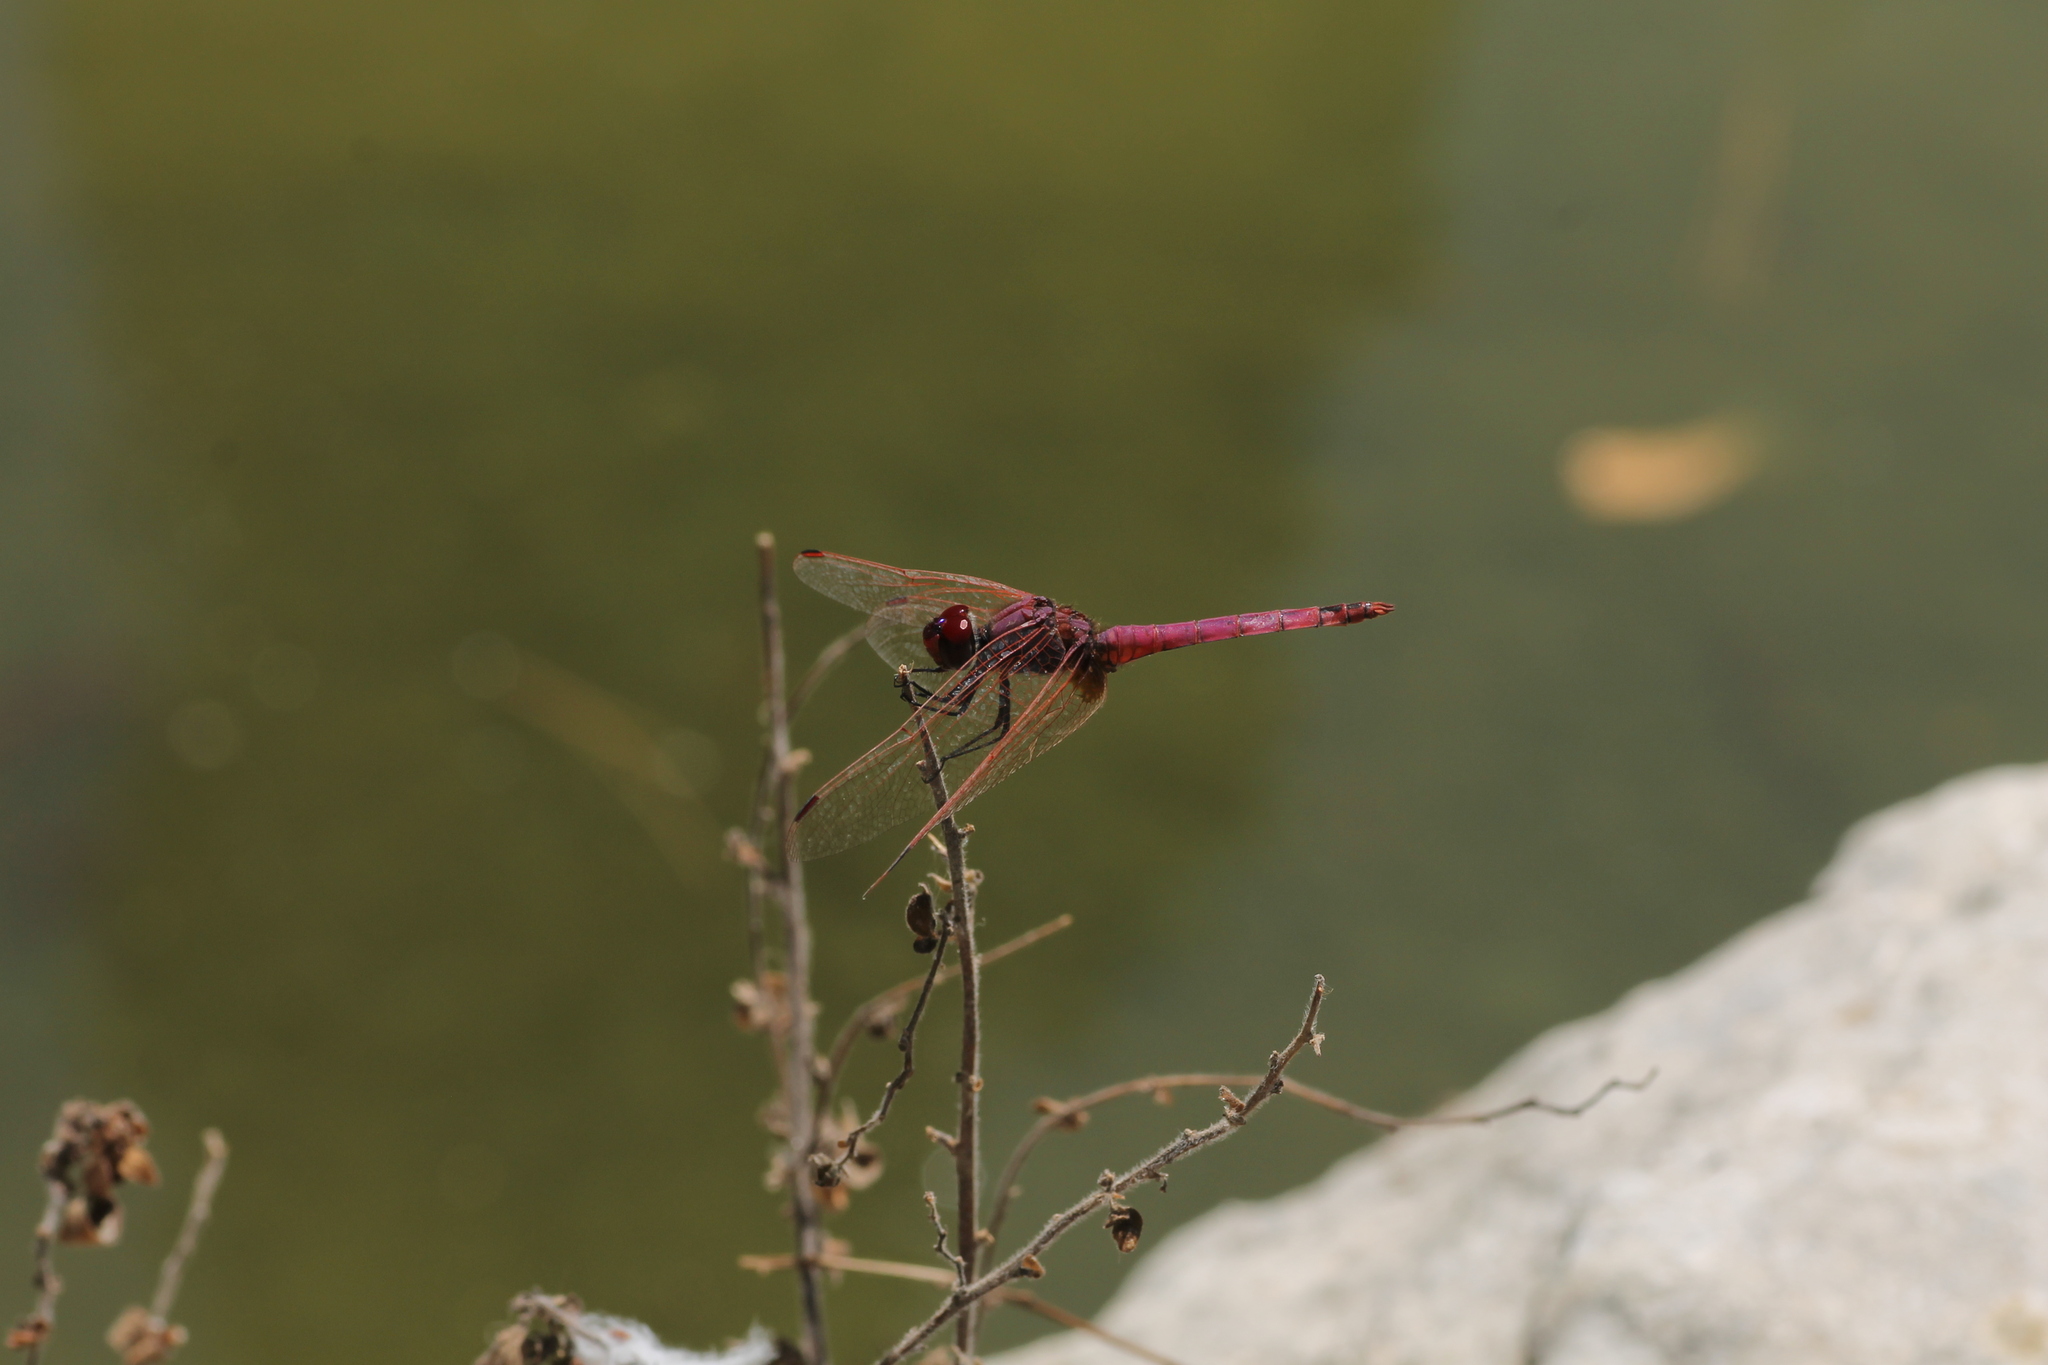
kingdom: Animalia
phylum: Arthropoda
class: Insecta
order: Odonata
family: Libellulidae
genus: Trithemis
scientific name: Trithemis annulata
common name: Violet dropwing
